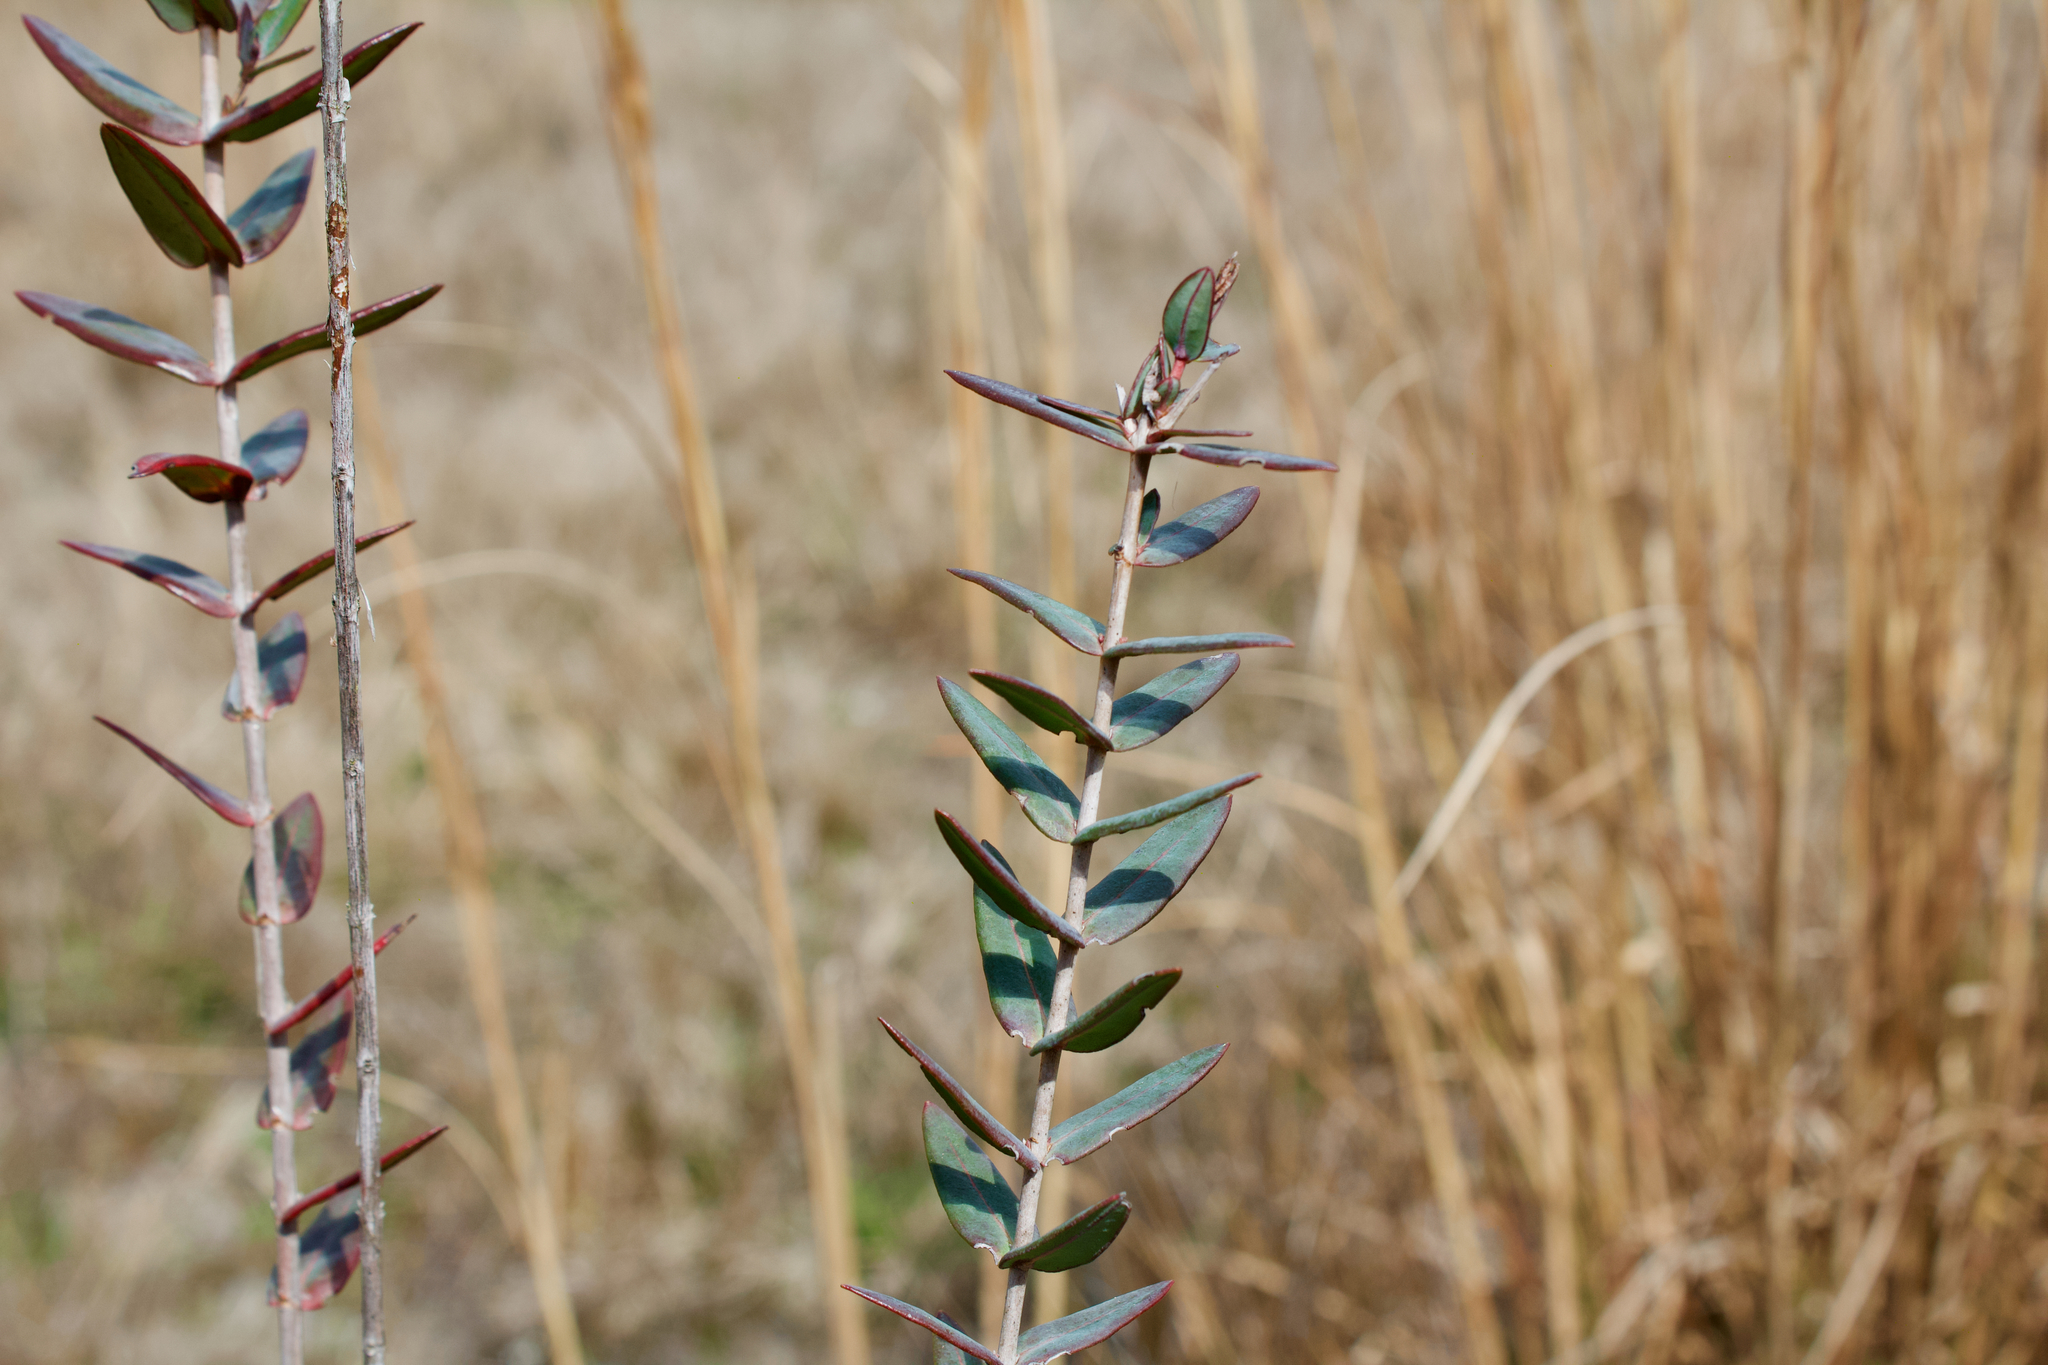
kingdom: Plantae
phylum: Tracheophyta
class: Magnoliopsida
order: Malpighiales
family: Hypericaceae
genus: Hypericum
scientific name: Hypericum myrtifolium
